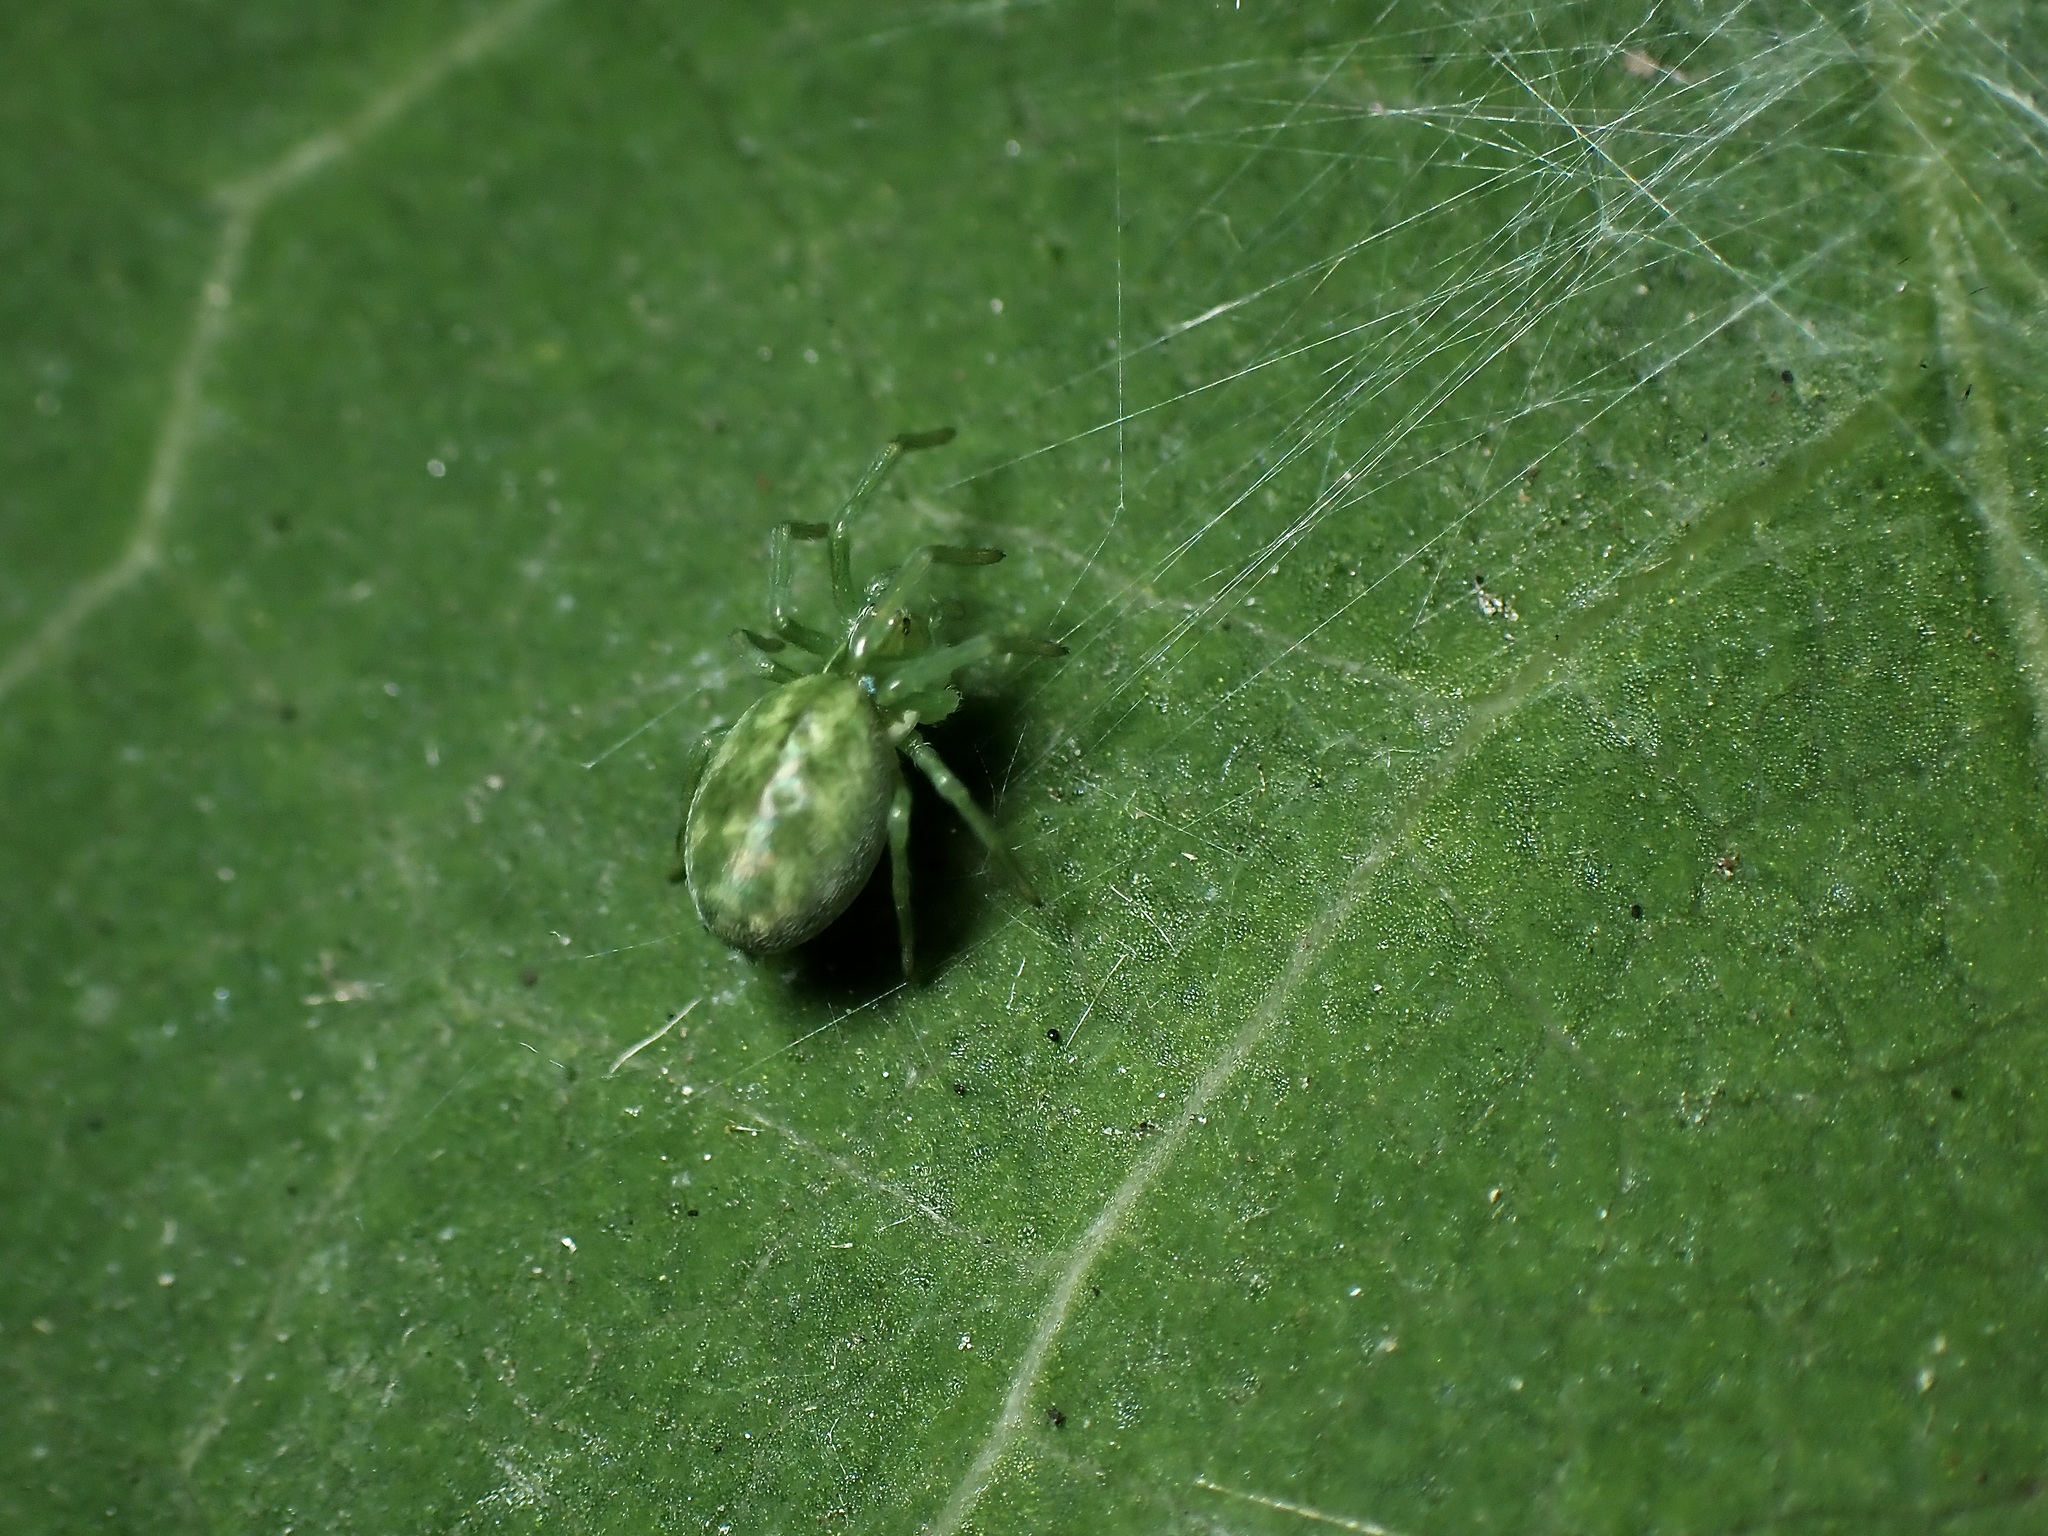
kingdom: Animalia
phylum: Arthropoda
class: Arachnida
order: Araneae
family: Dictynidae
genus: Nigma
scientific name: Nigma walckenaeri
